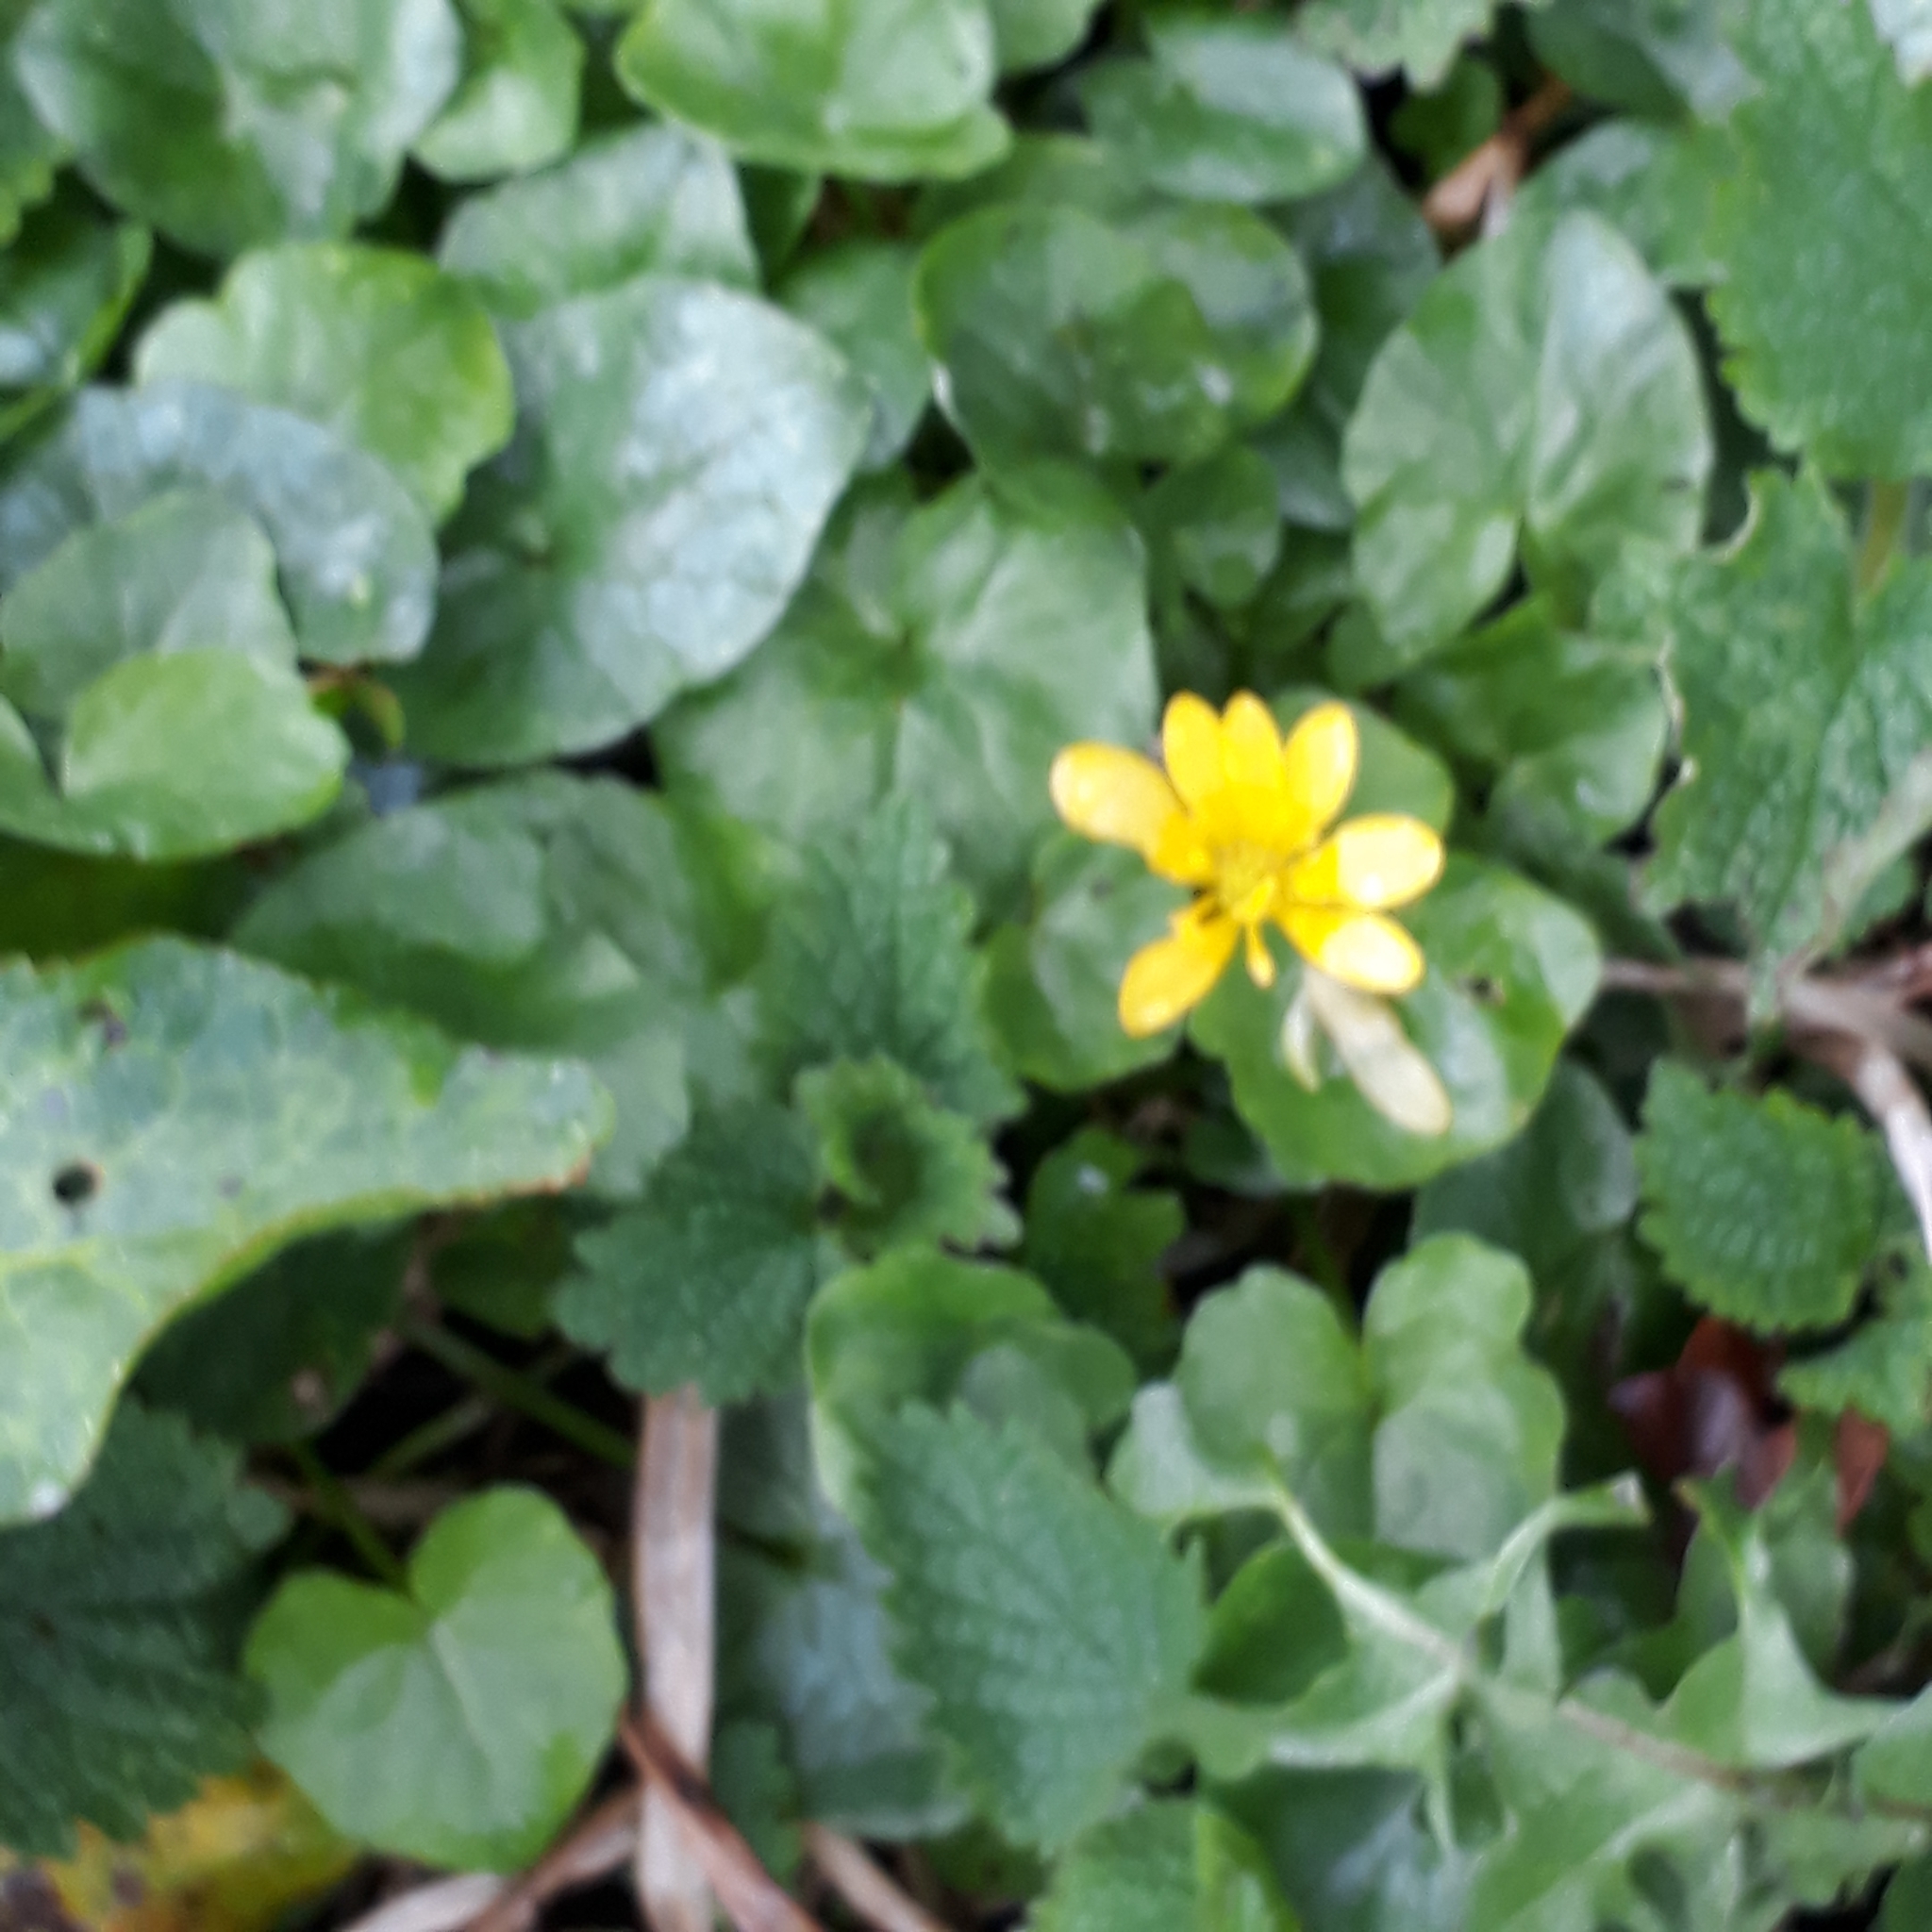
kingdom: Plantae
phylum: Tracheophyta
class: Magnoliopsida
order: Ranunculales
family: Ranunculaceae
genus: Ficaria
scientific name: Ficaria verna
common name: Lesser celandine
